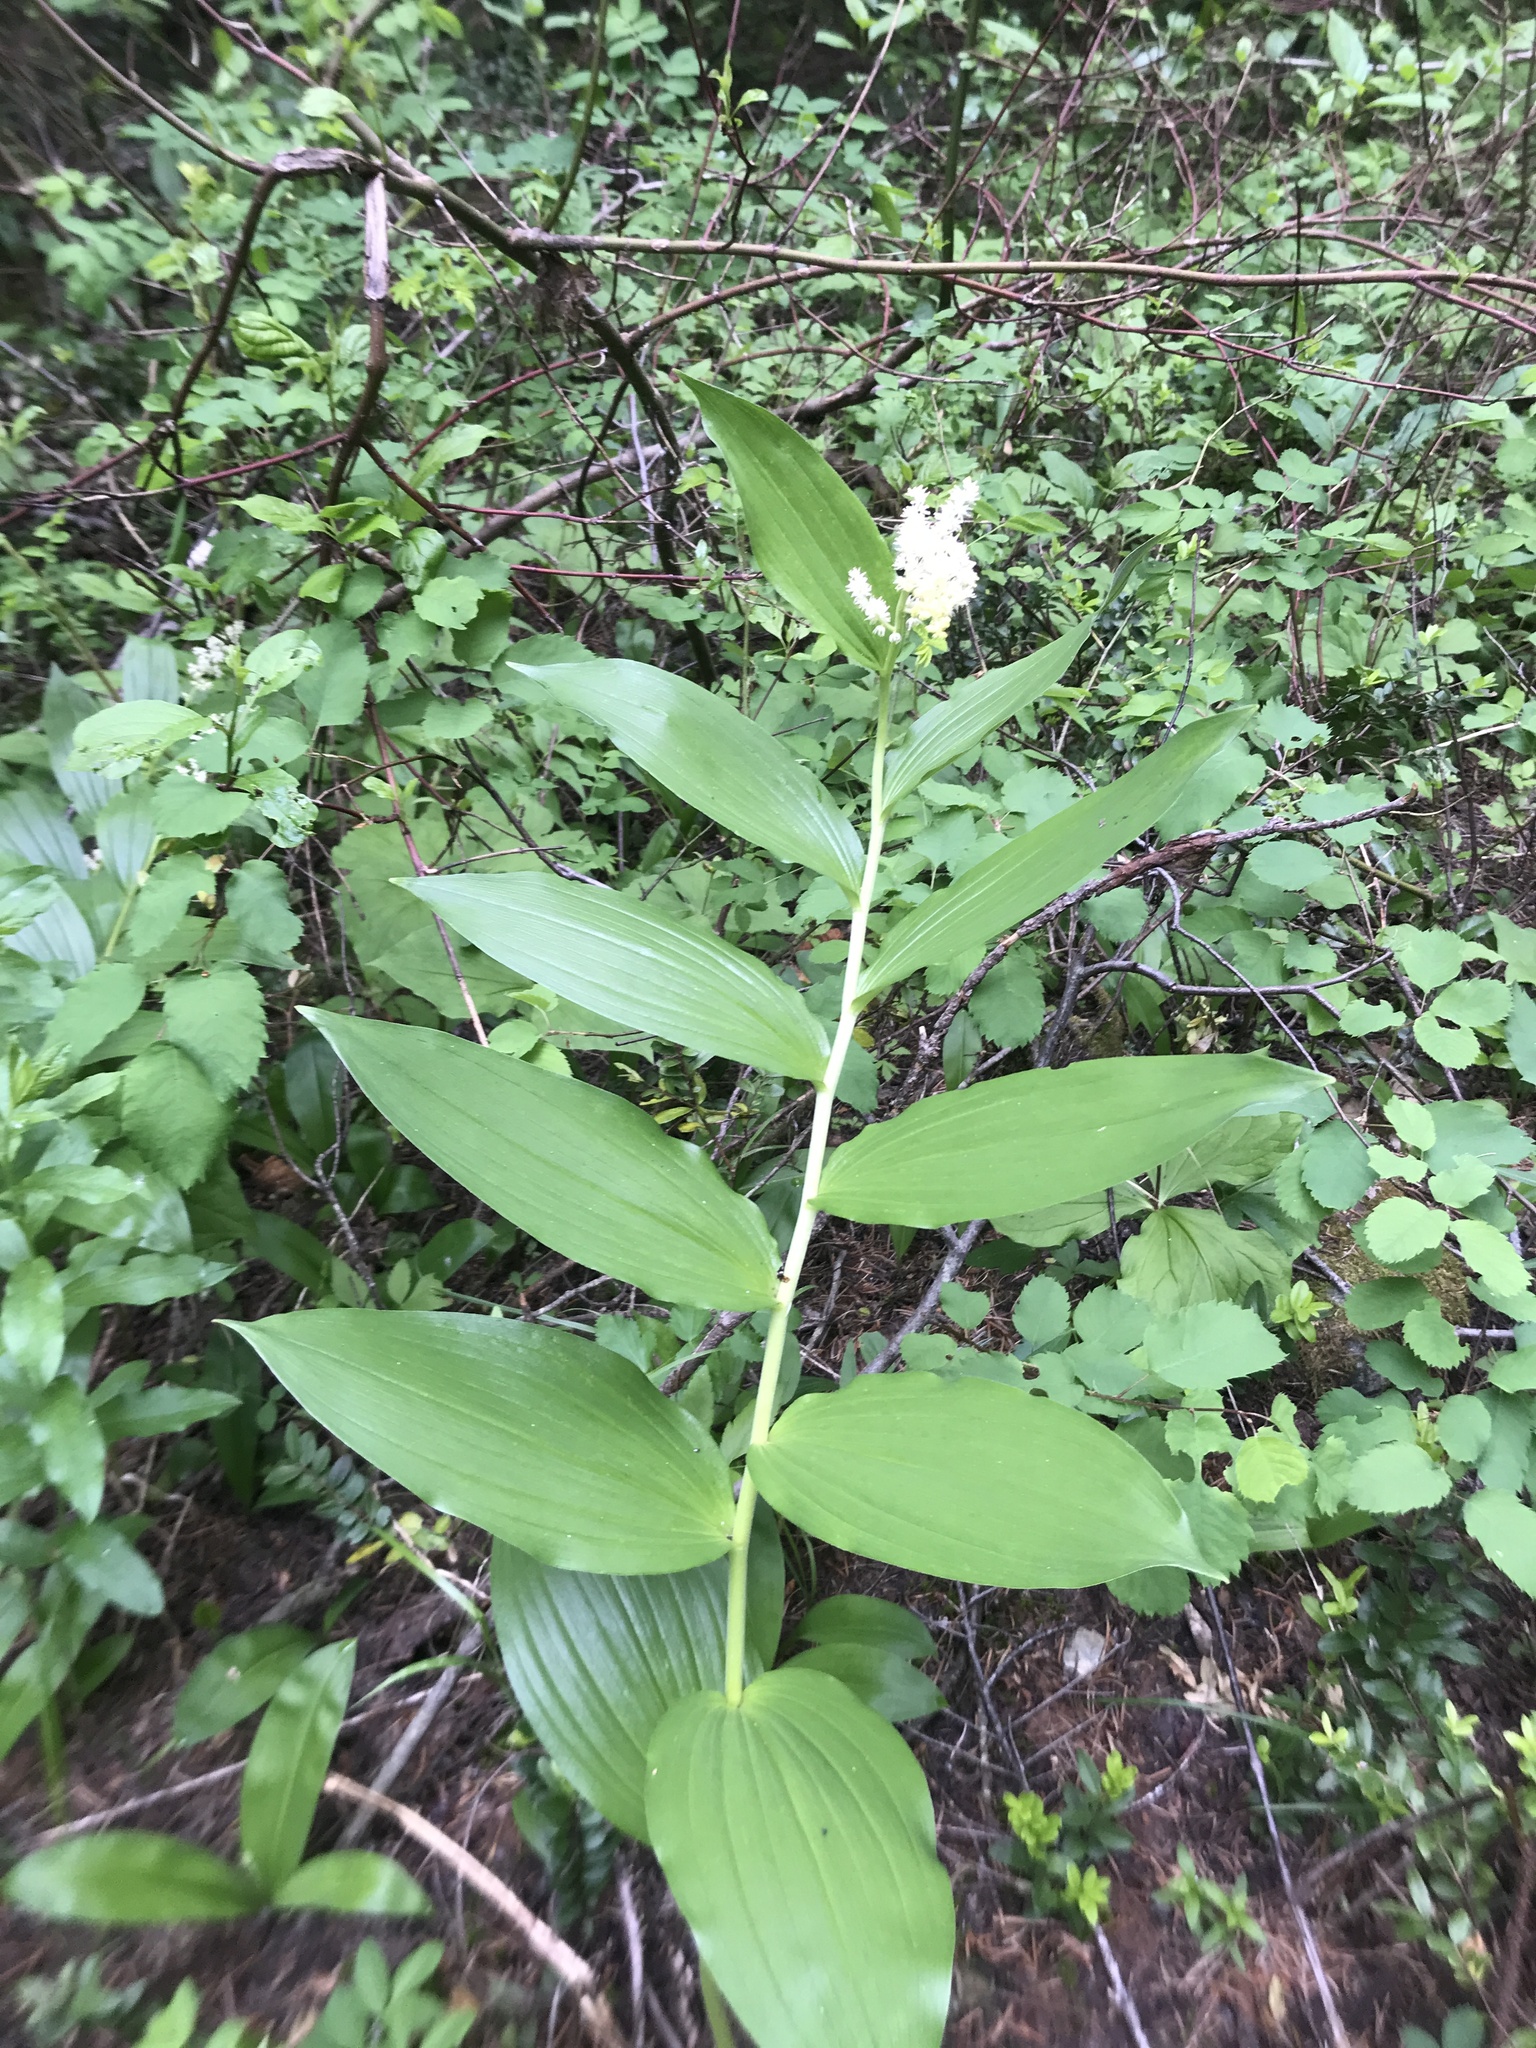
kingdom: Plantae
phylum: Tracheophyta
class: Liliopsida
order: Asparagales
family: Asparagaceae
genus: Maianthemum
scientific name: Maianthemum racemosum
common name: False spikenard
